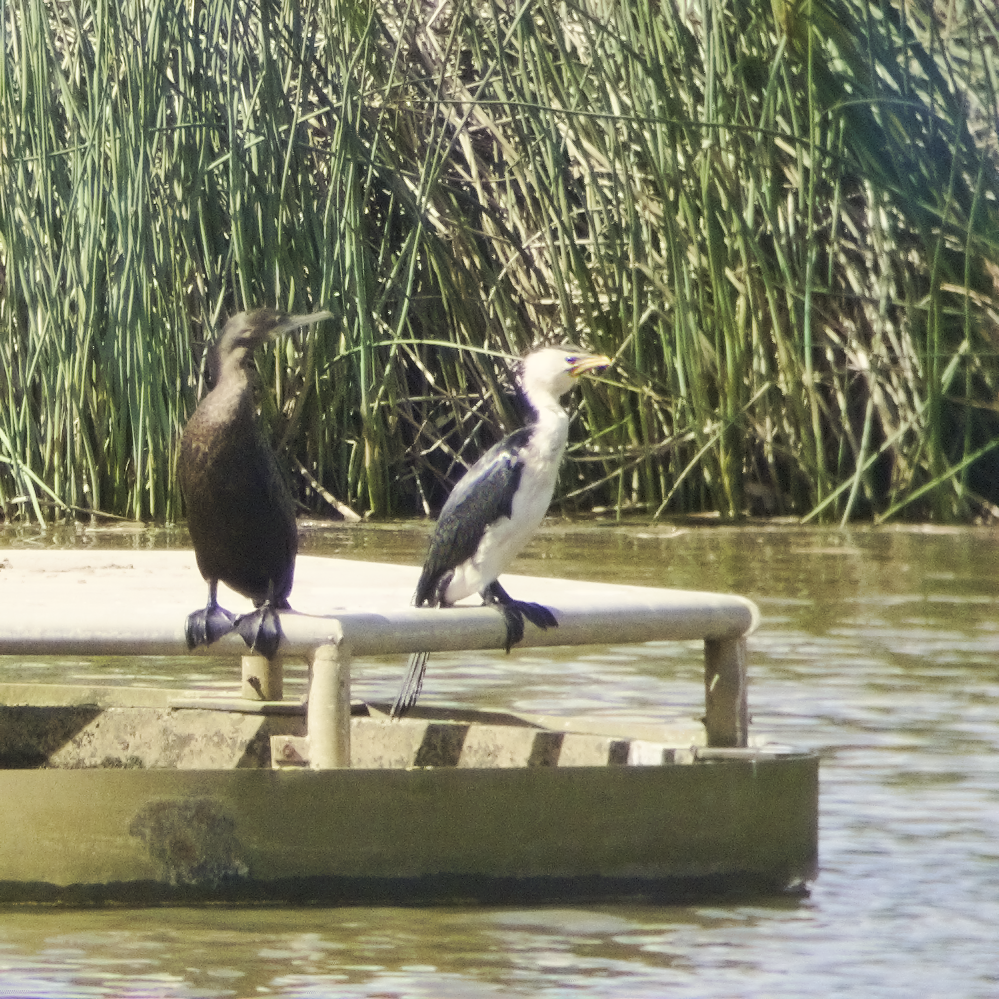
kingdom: Animalia
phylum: Chordata
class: Aves
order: Suliformes
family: Phalacrocoracidae
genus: Microcarbo
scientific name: Microcarbo melanoleucos
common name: Little pied cormorant
